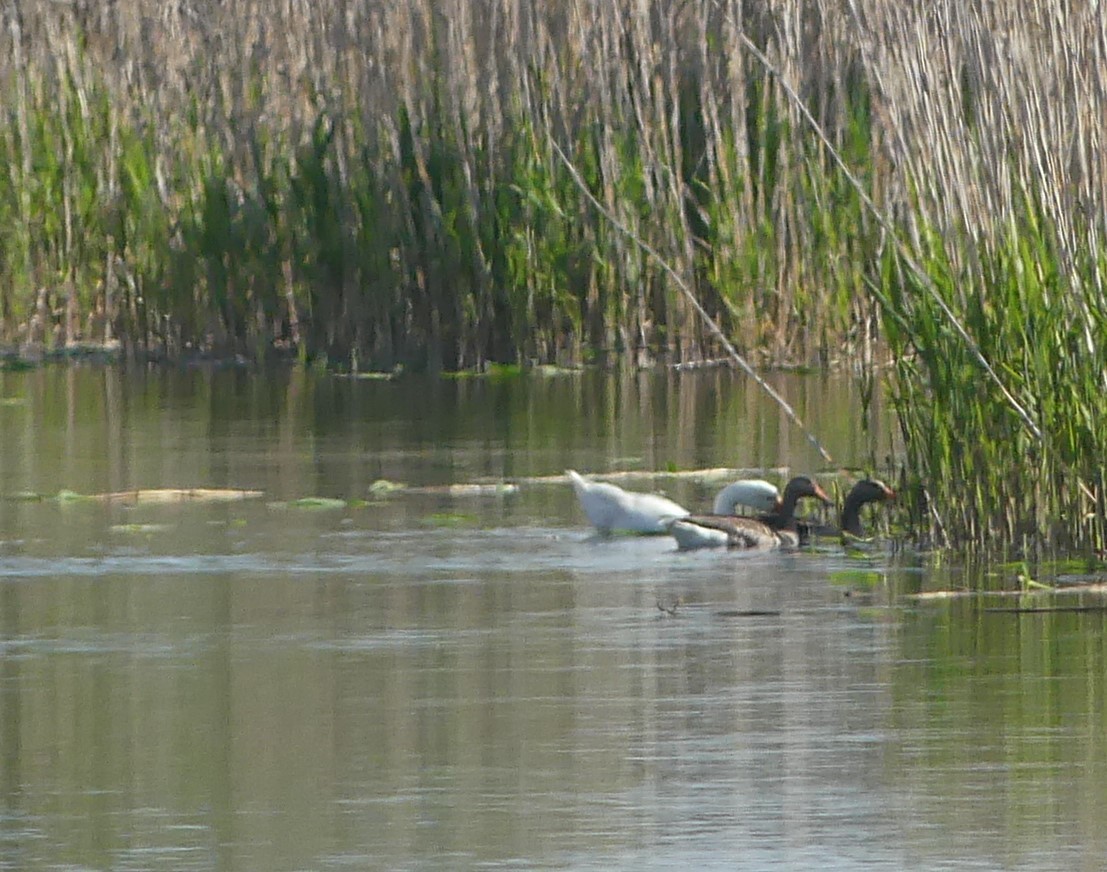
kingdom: Animalia
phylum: Chordata
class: Aves
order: Anseriformes
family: Anatidae
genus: Anser
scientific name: Anser anser
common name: Greylag goose
